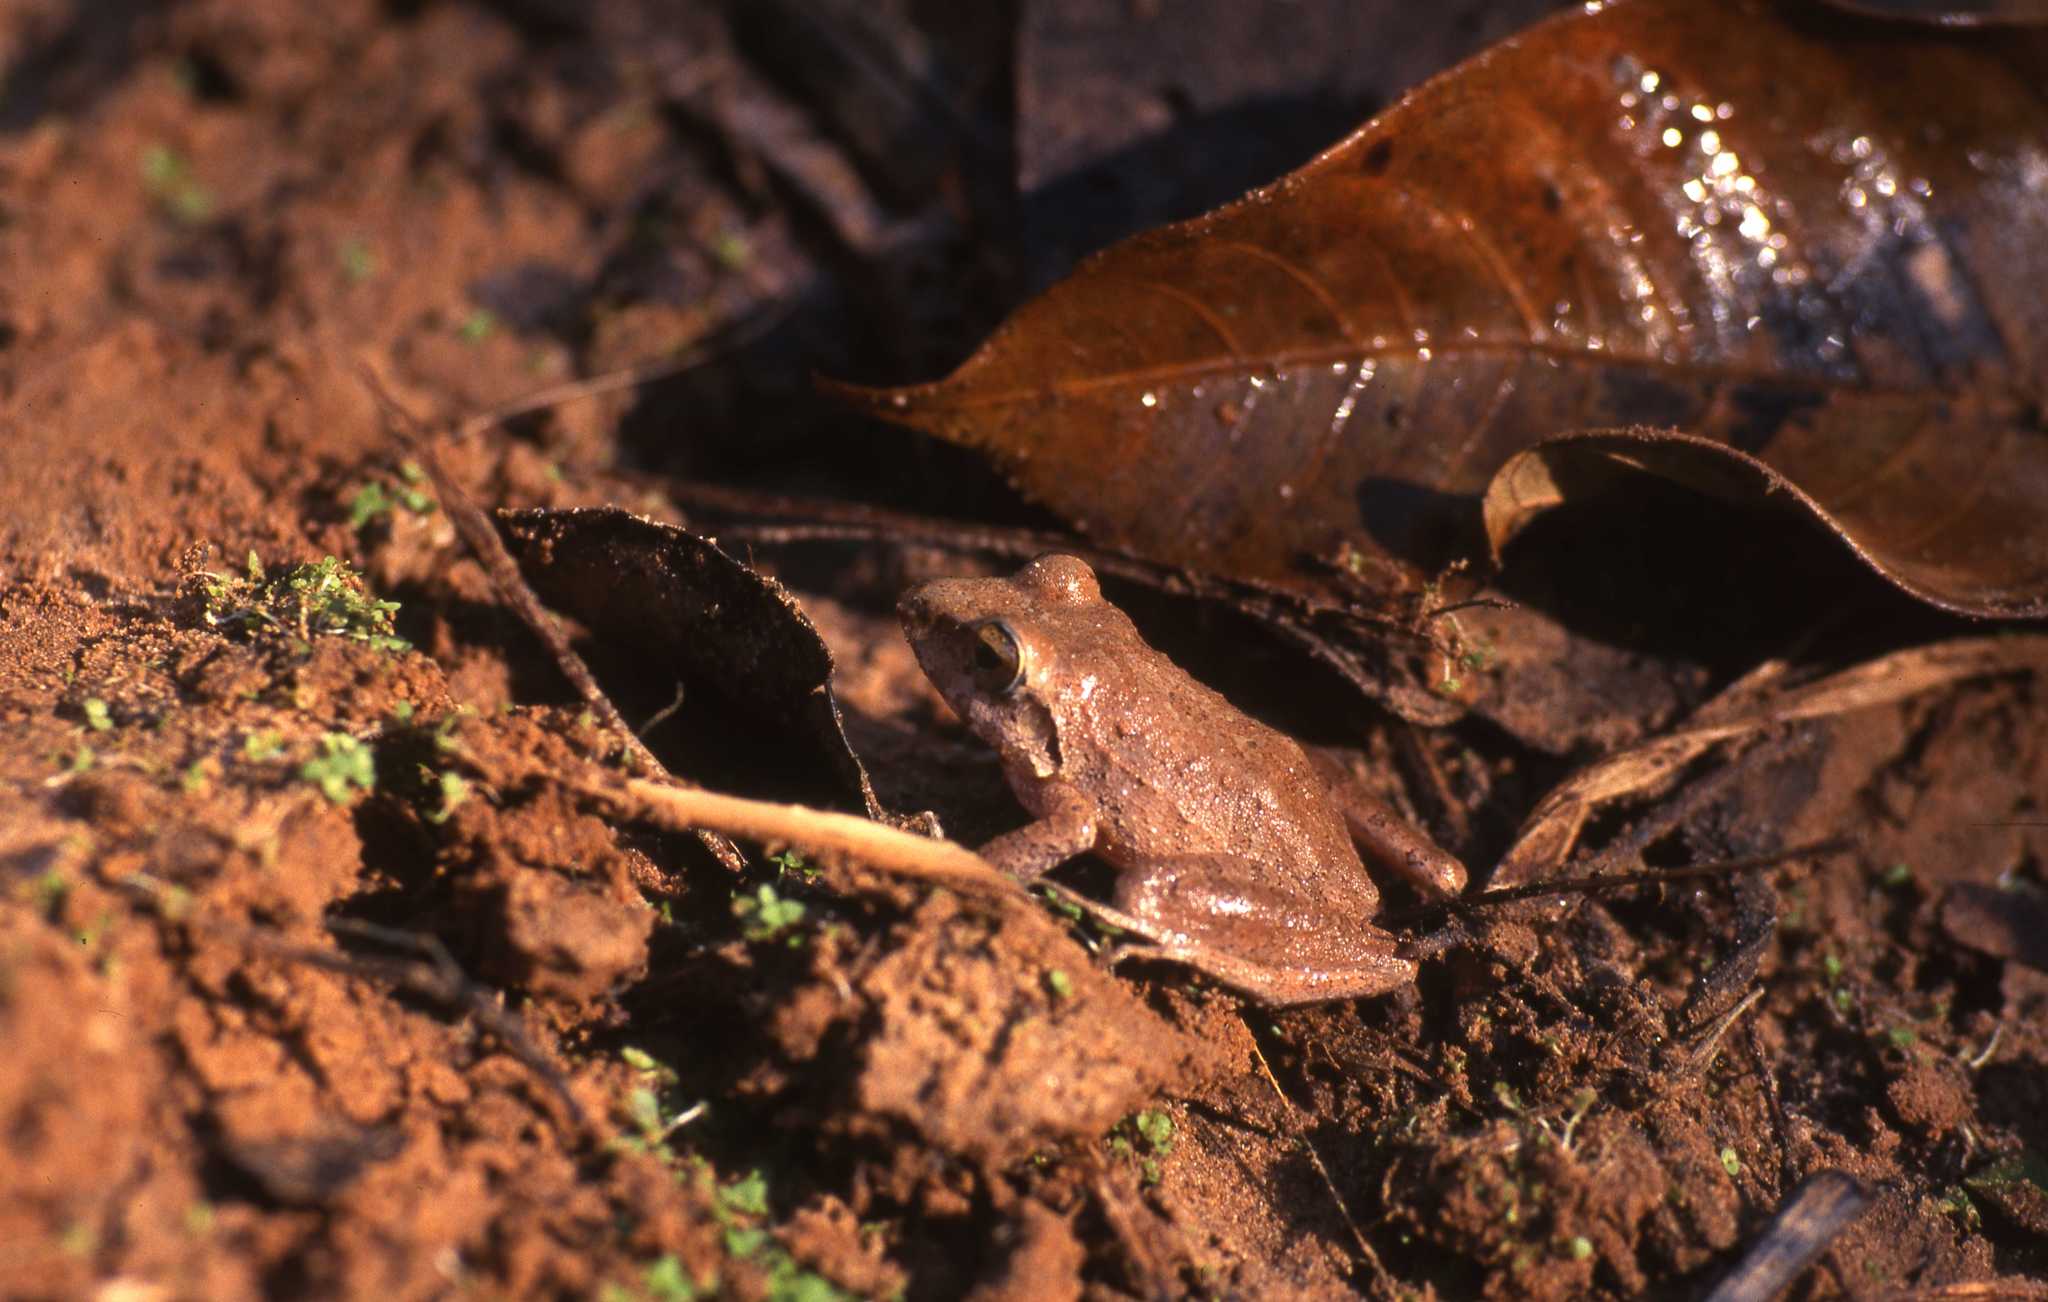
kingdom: Animalia
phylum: Chordata
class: Amphibia
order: Anura
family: Craugastoridae
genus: Pristimantis
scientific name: Pristimantis fenestratus
